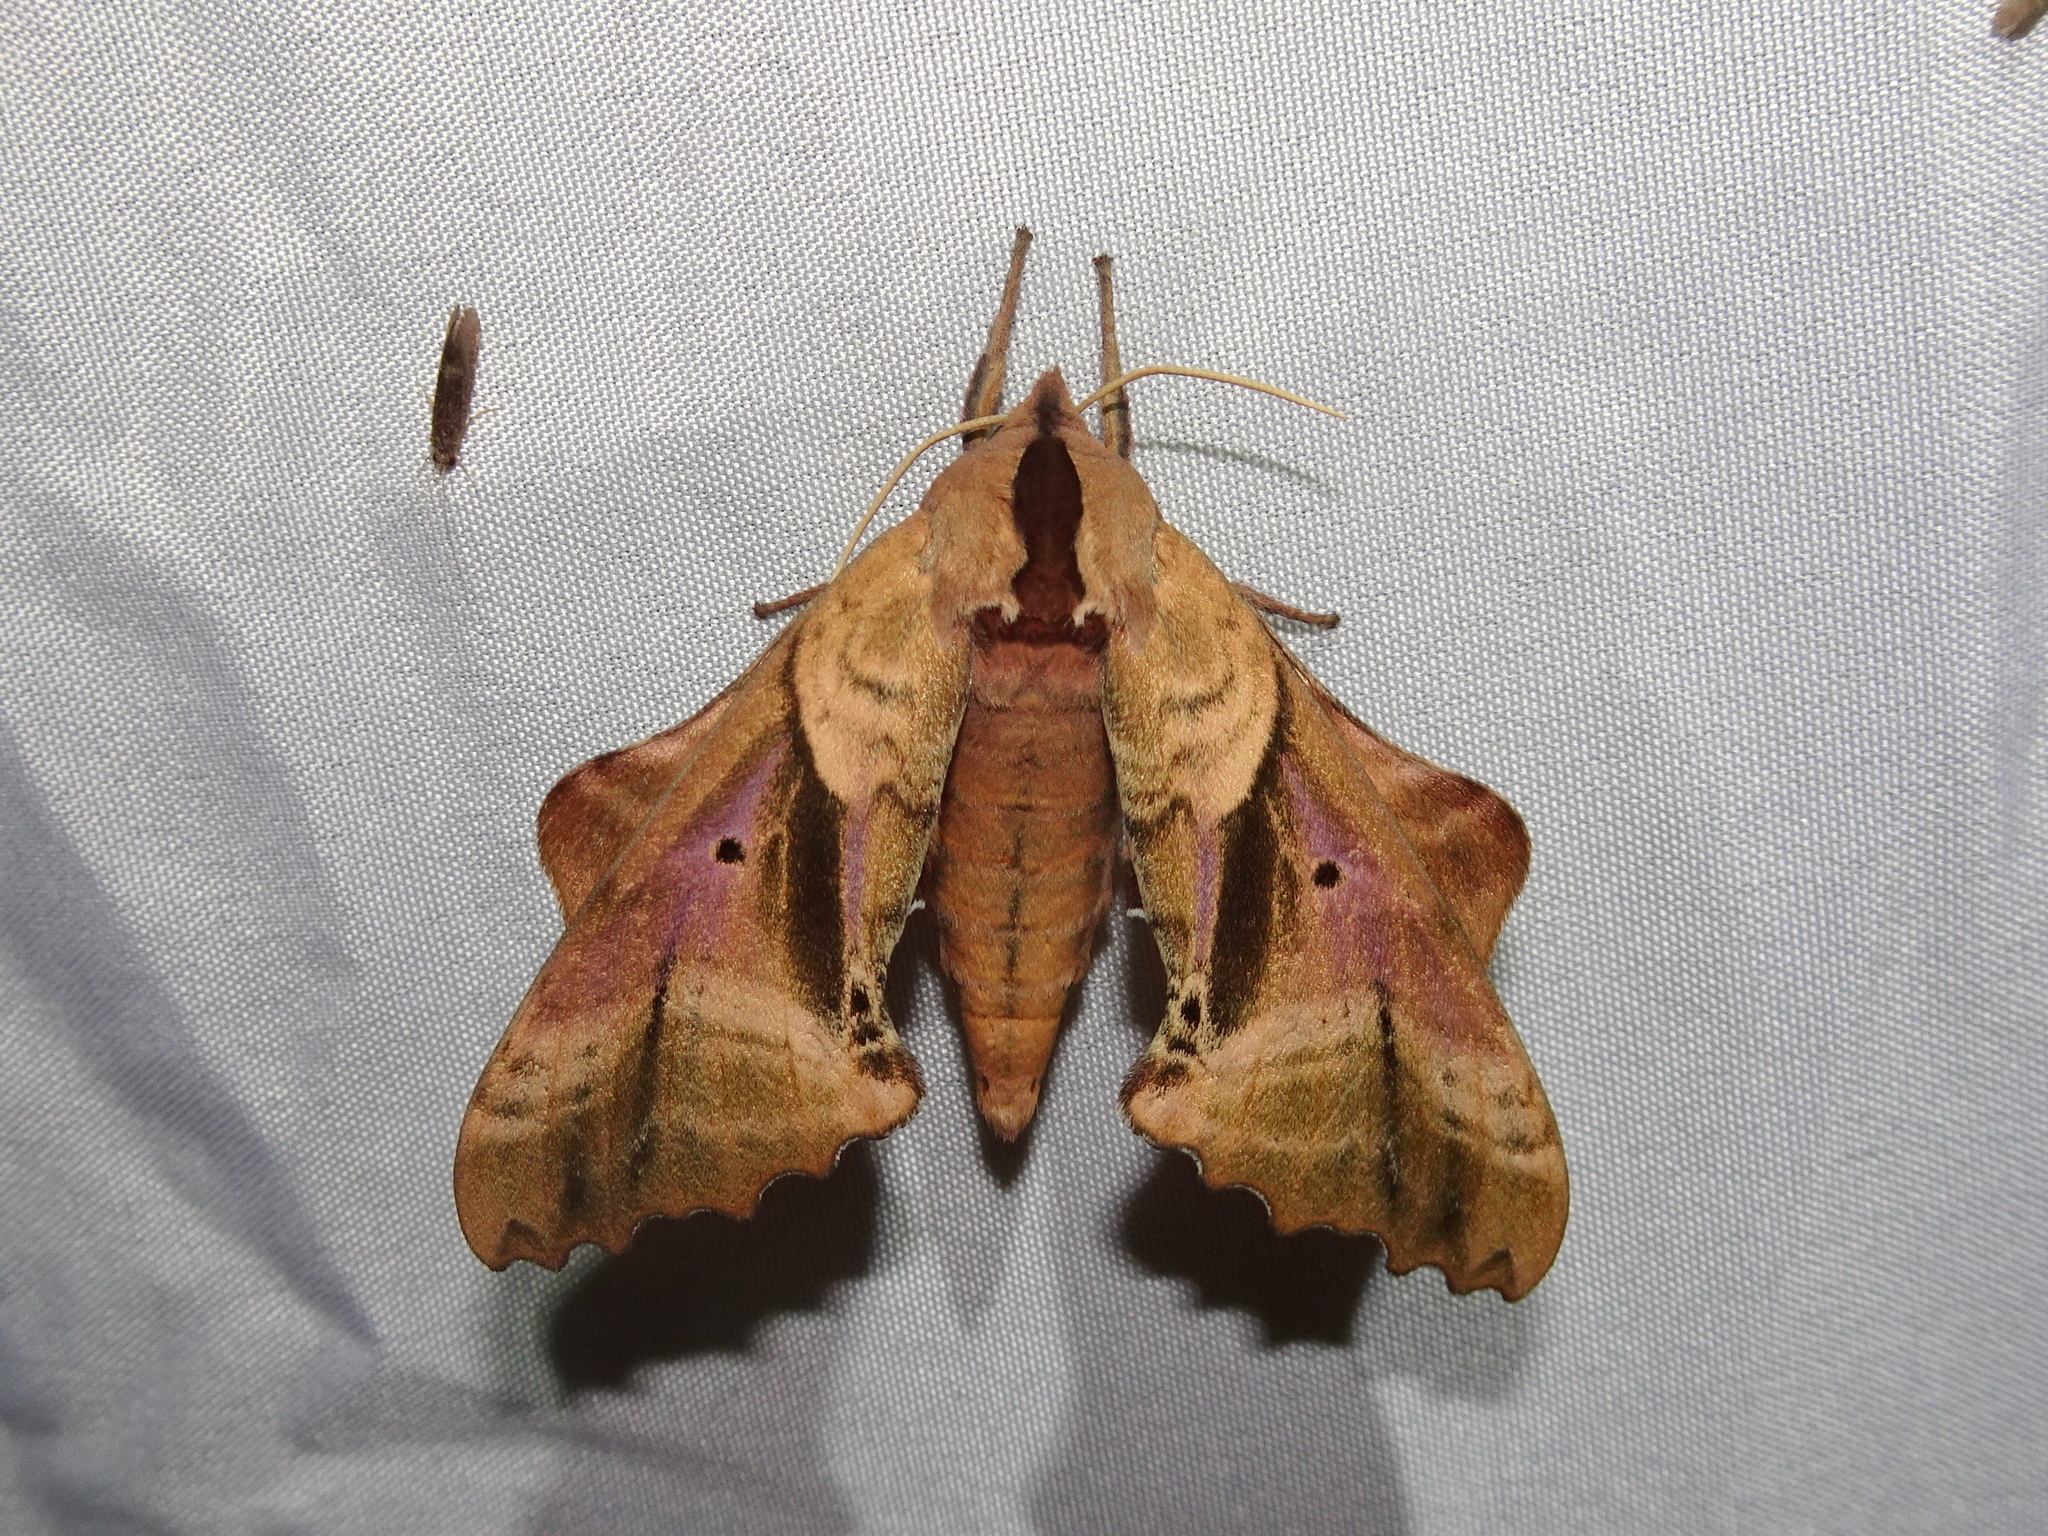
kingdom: Animalia
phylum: Arthropoda
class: Insecta
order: Lepidoptera
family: Sphingidae
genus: Paonias
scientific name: Paonias excaecata
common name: Blind-eyed sphinx
